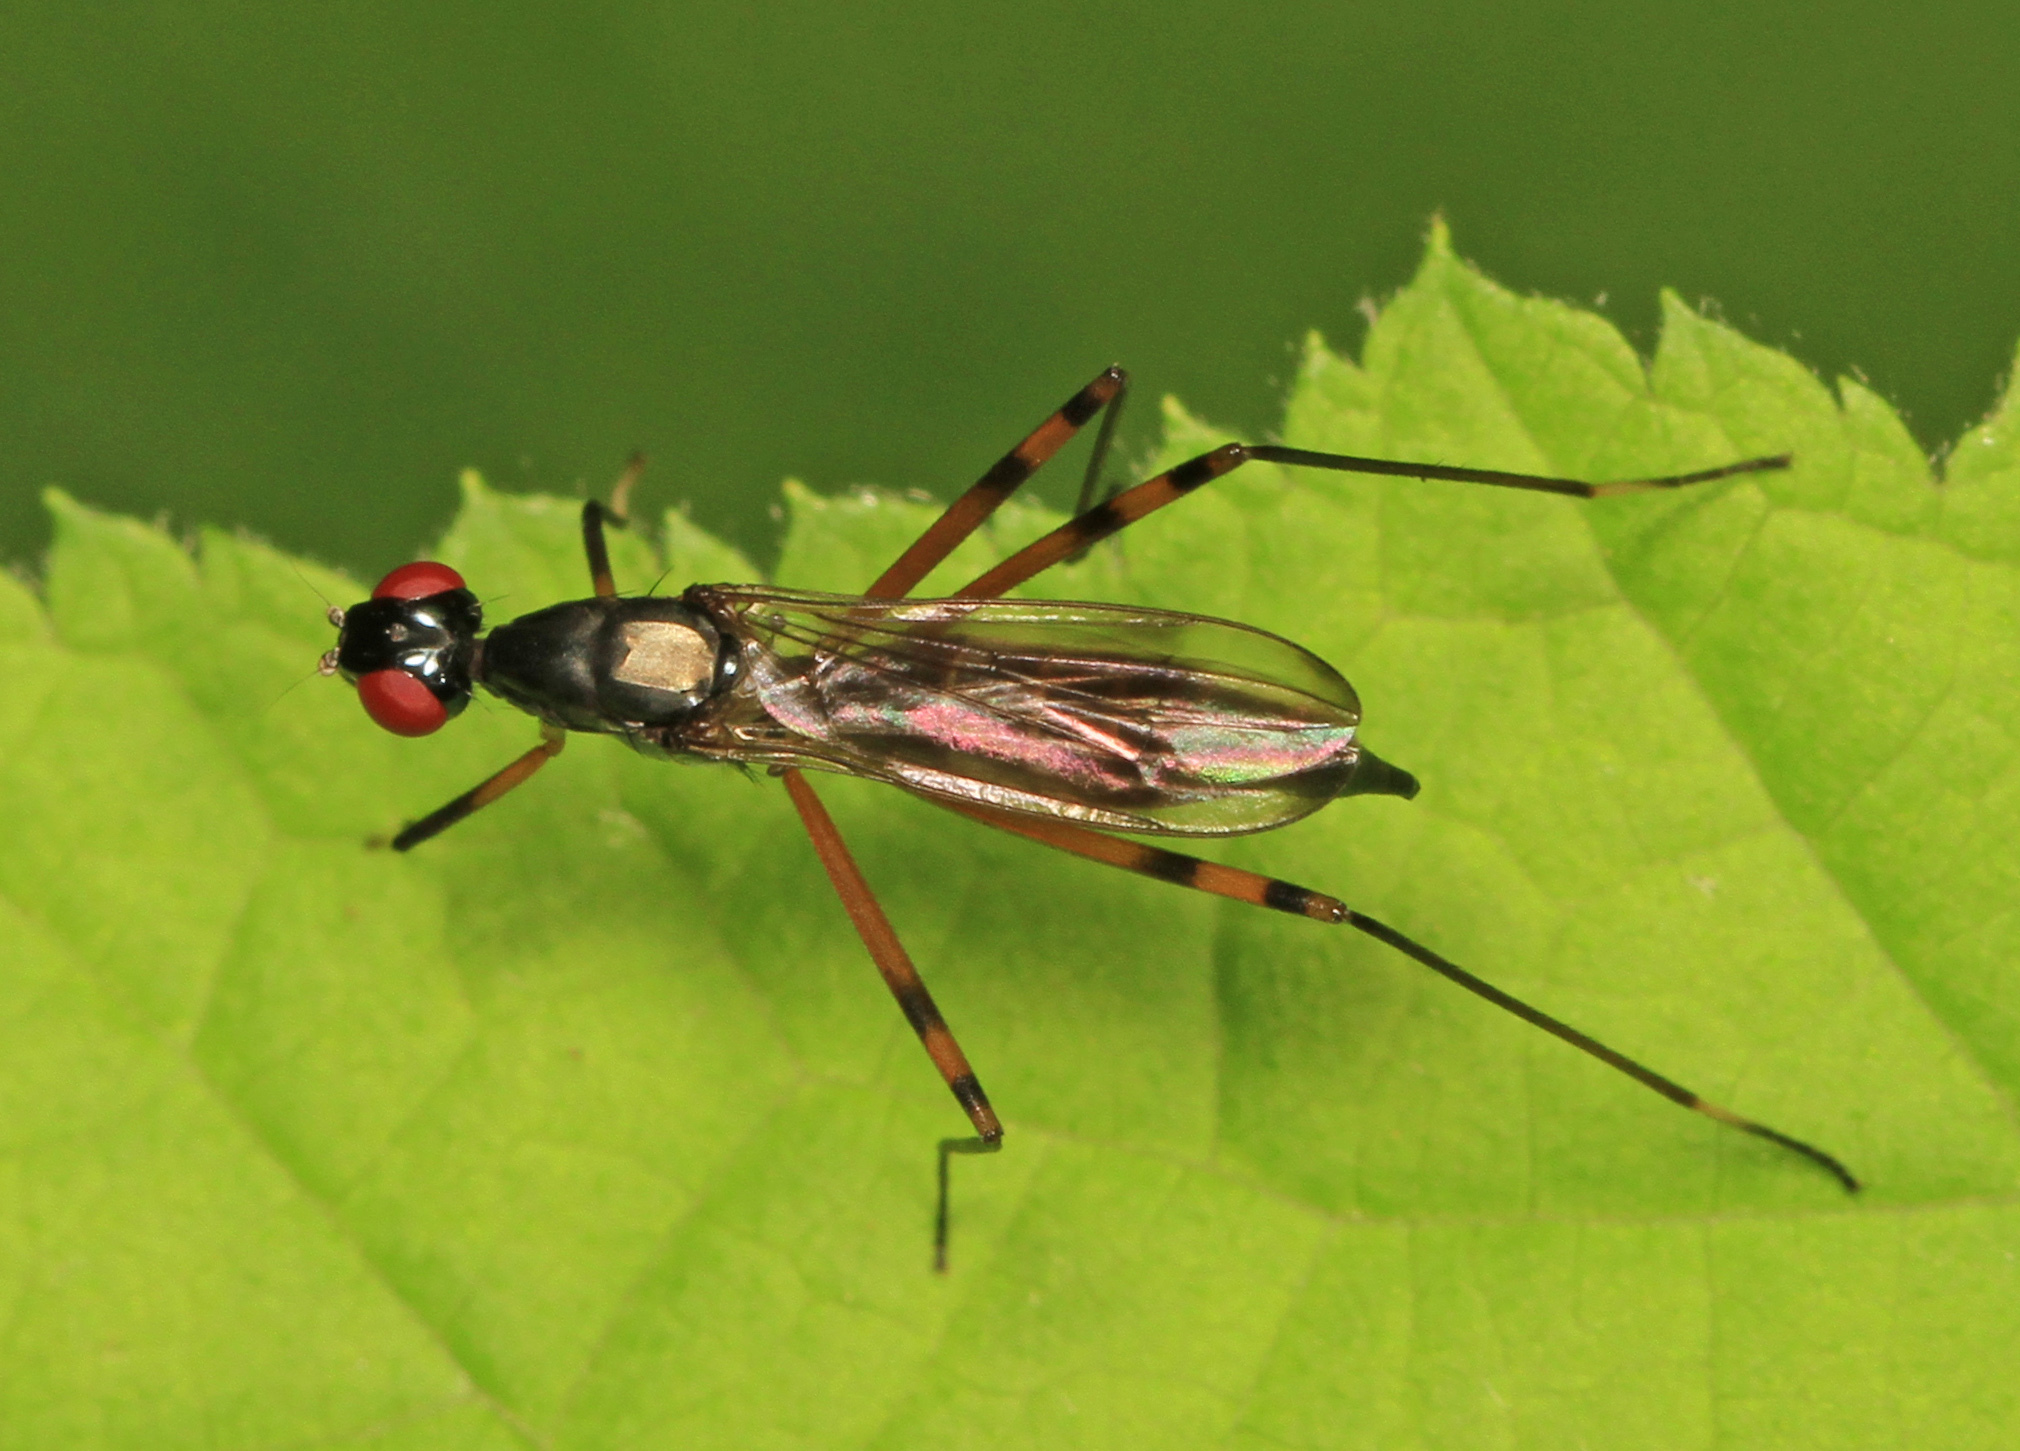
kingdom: Animalia
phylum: Arthropoda
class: Insecta
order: Diptera
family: Micropezidae
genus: Rainieria
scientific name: Rainieria antennaepes
